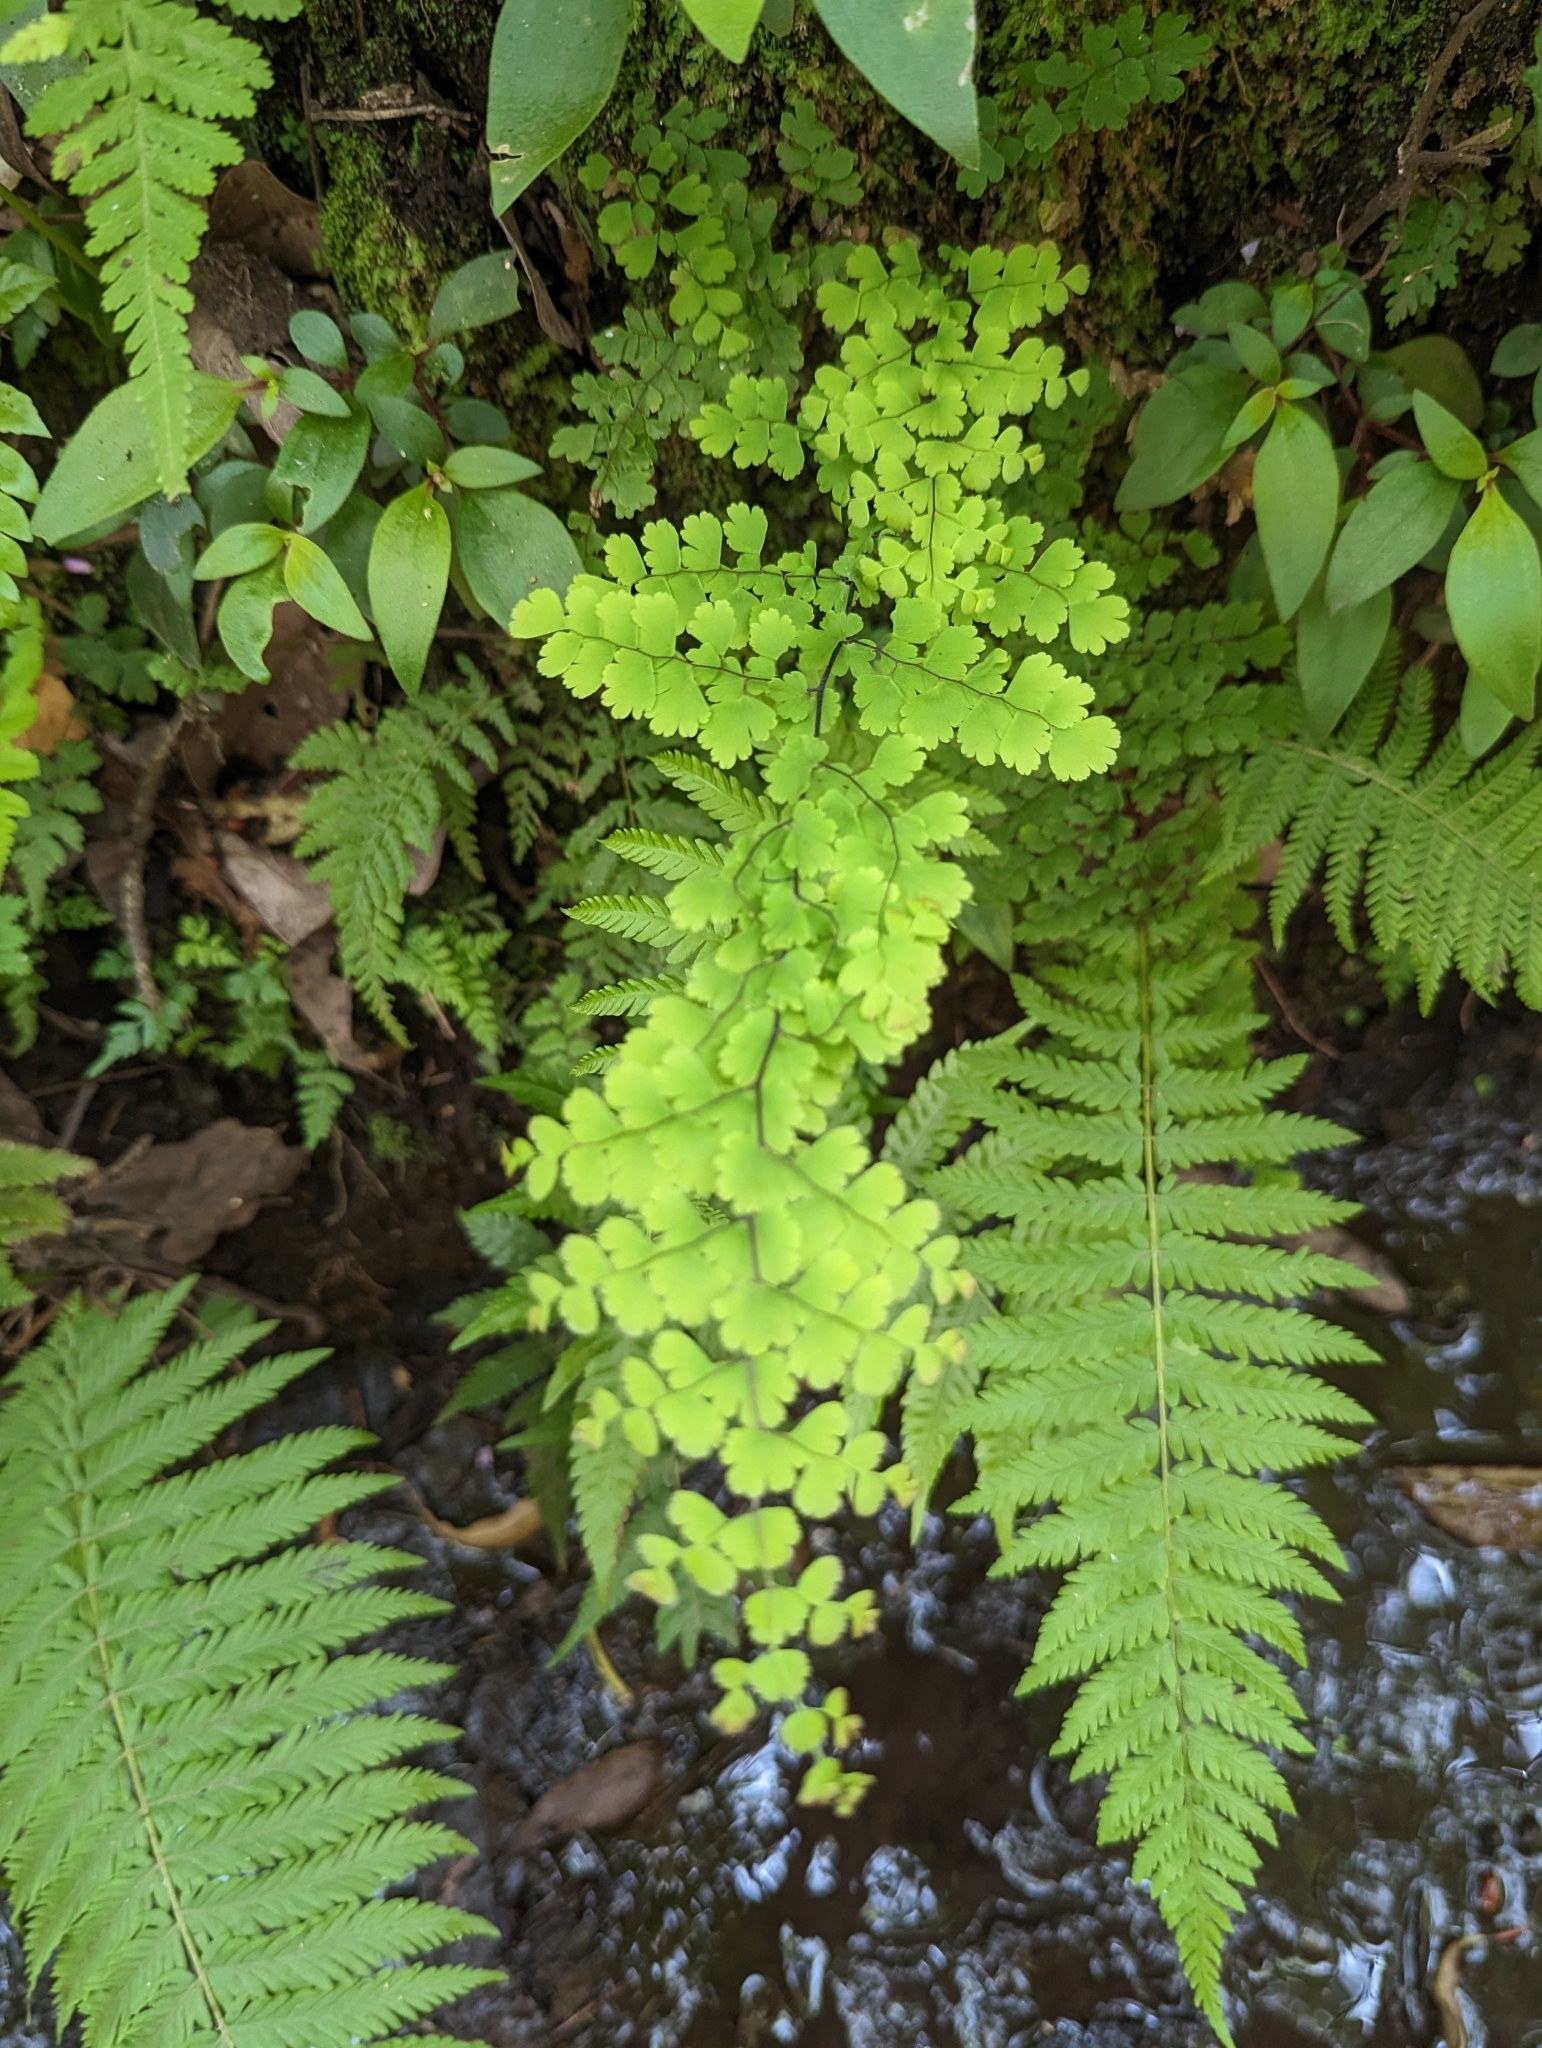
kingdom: Plantae
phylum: Tracheophyta
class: Polypodiopsida
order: Polypodiales
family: Pteridaceae
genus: Adiantum
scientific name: Adiantum concinnum
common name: Brittle maidenhair fern
